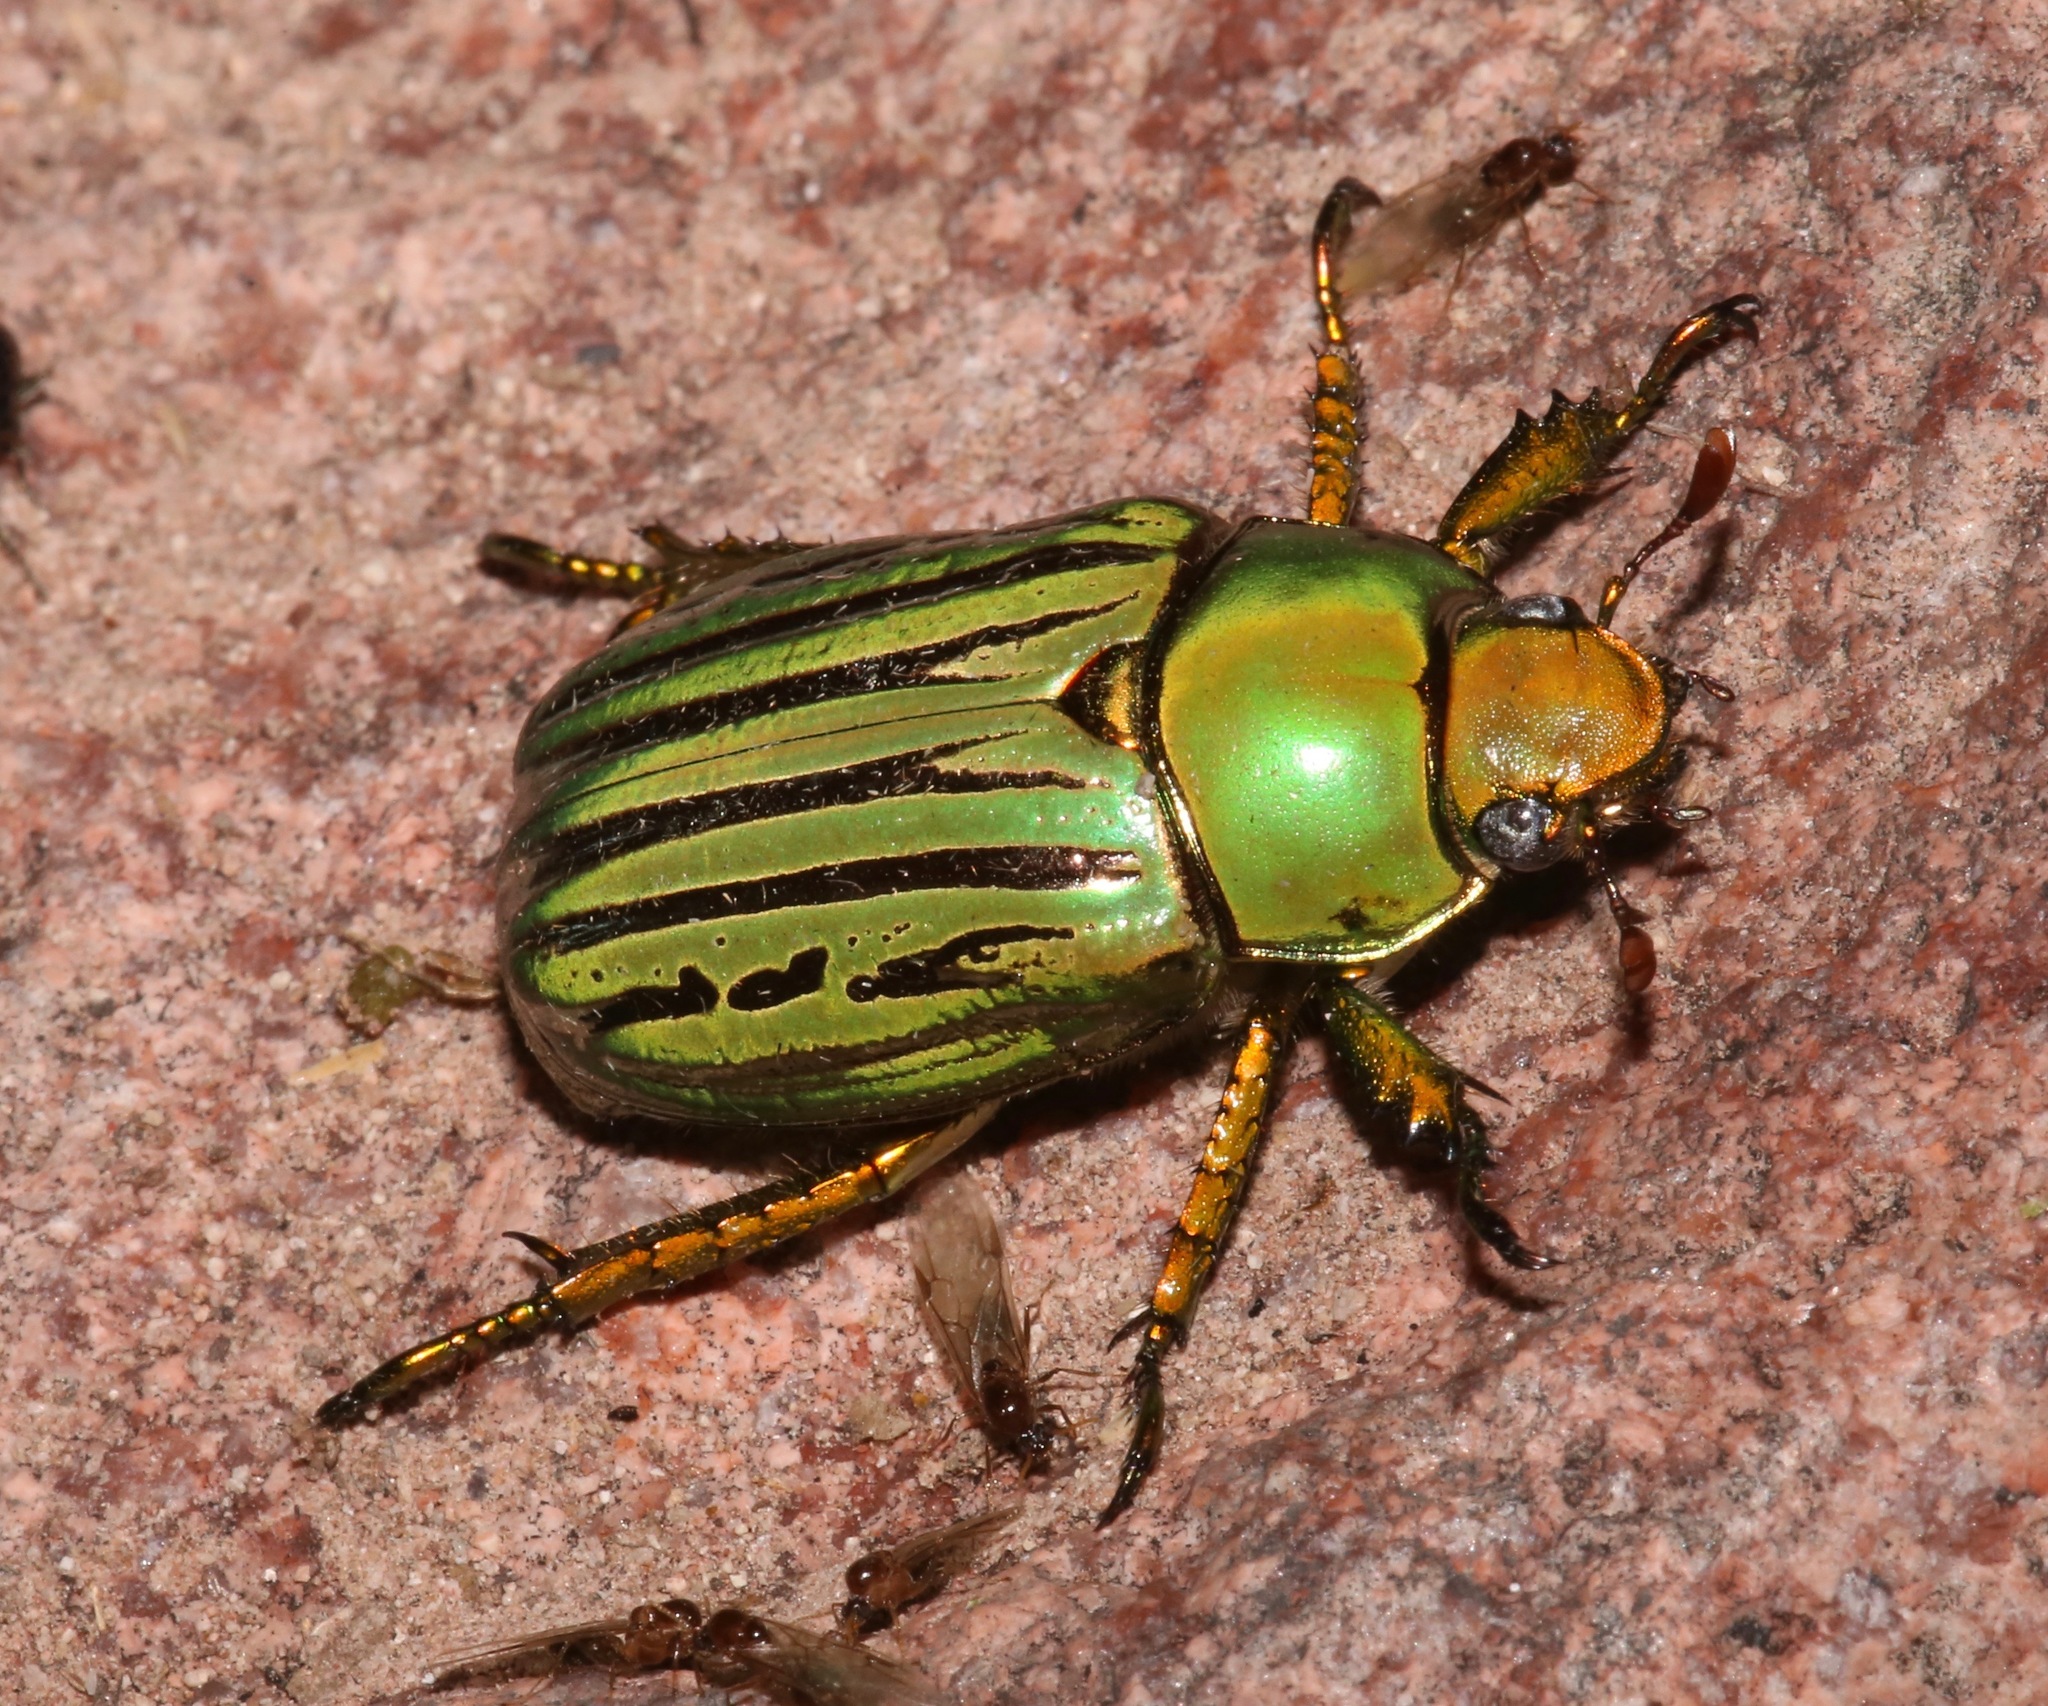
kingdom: Animalia
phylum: Arthropoda
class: Insecta
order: Coleoptera
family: Scarabaeidae
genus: Chrysina
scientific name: Chrysina gloriosa
